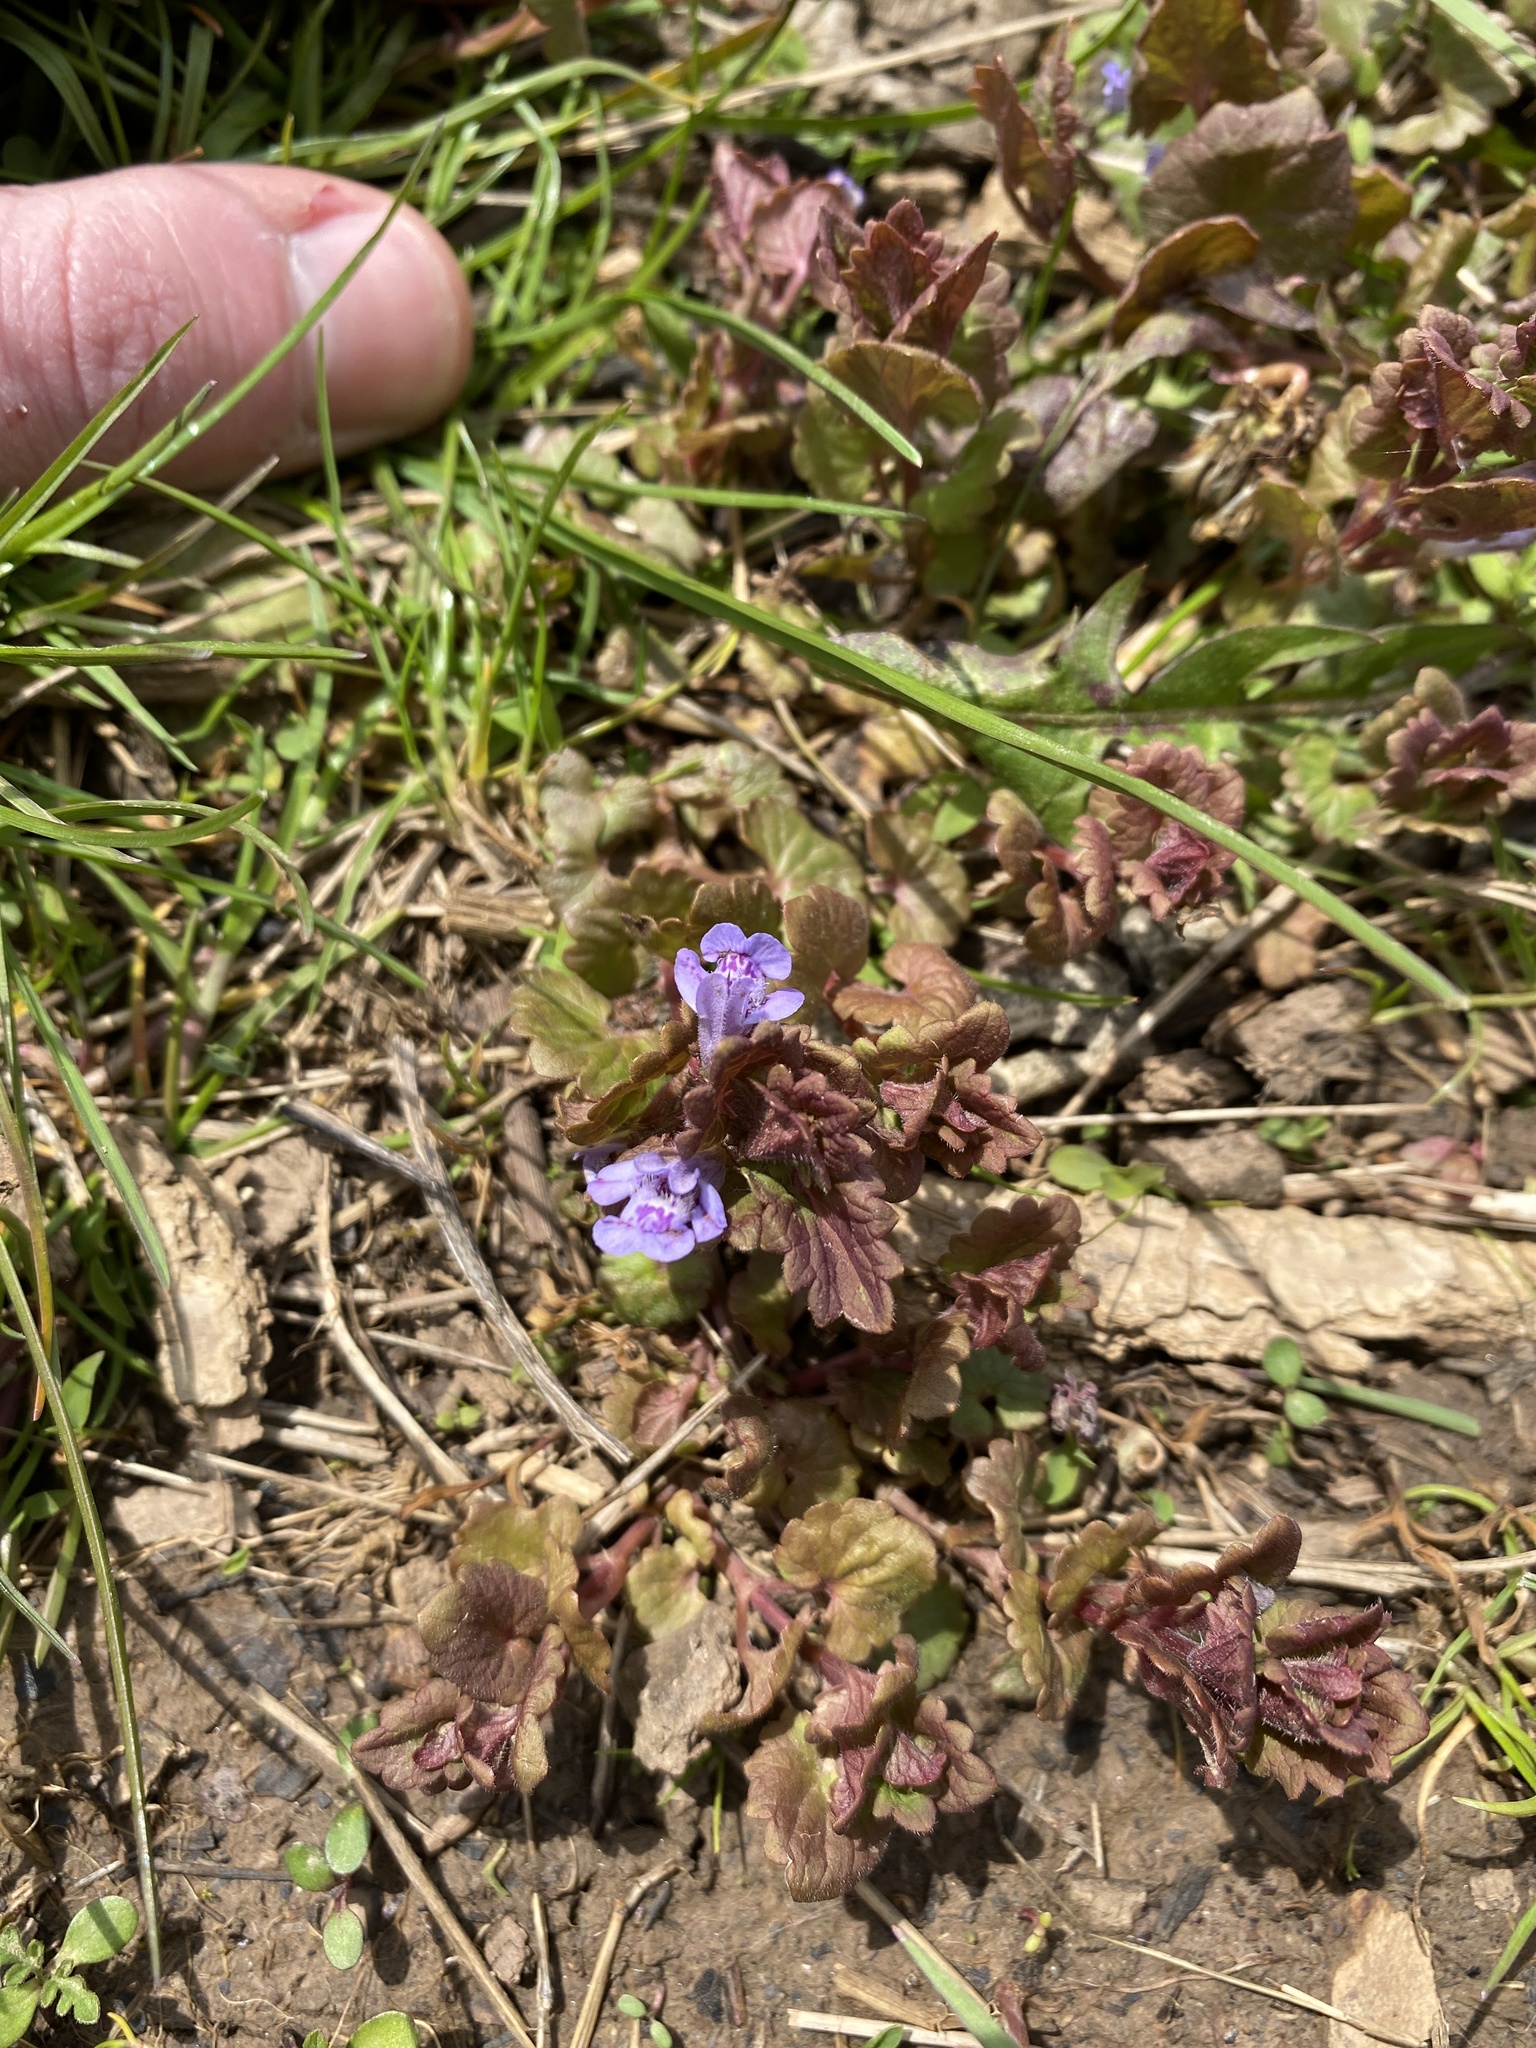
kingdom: Plantae
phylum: Tracheophyta
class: Magnoliopsida
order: Lamiales
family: Lamiaceae
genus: Glechoma
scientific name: Glechoma hederacea
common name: Ground ivy
